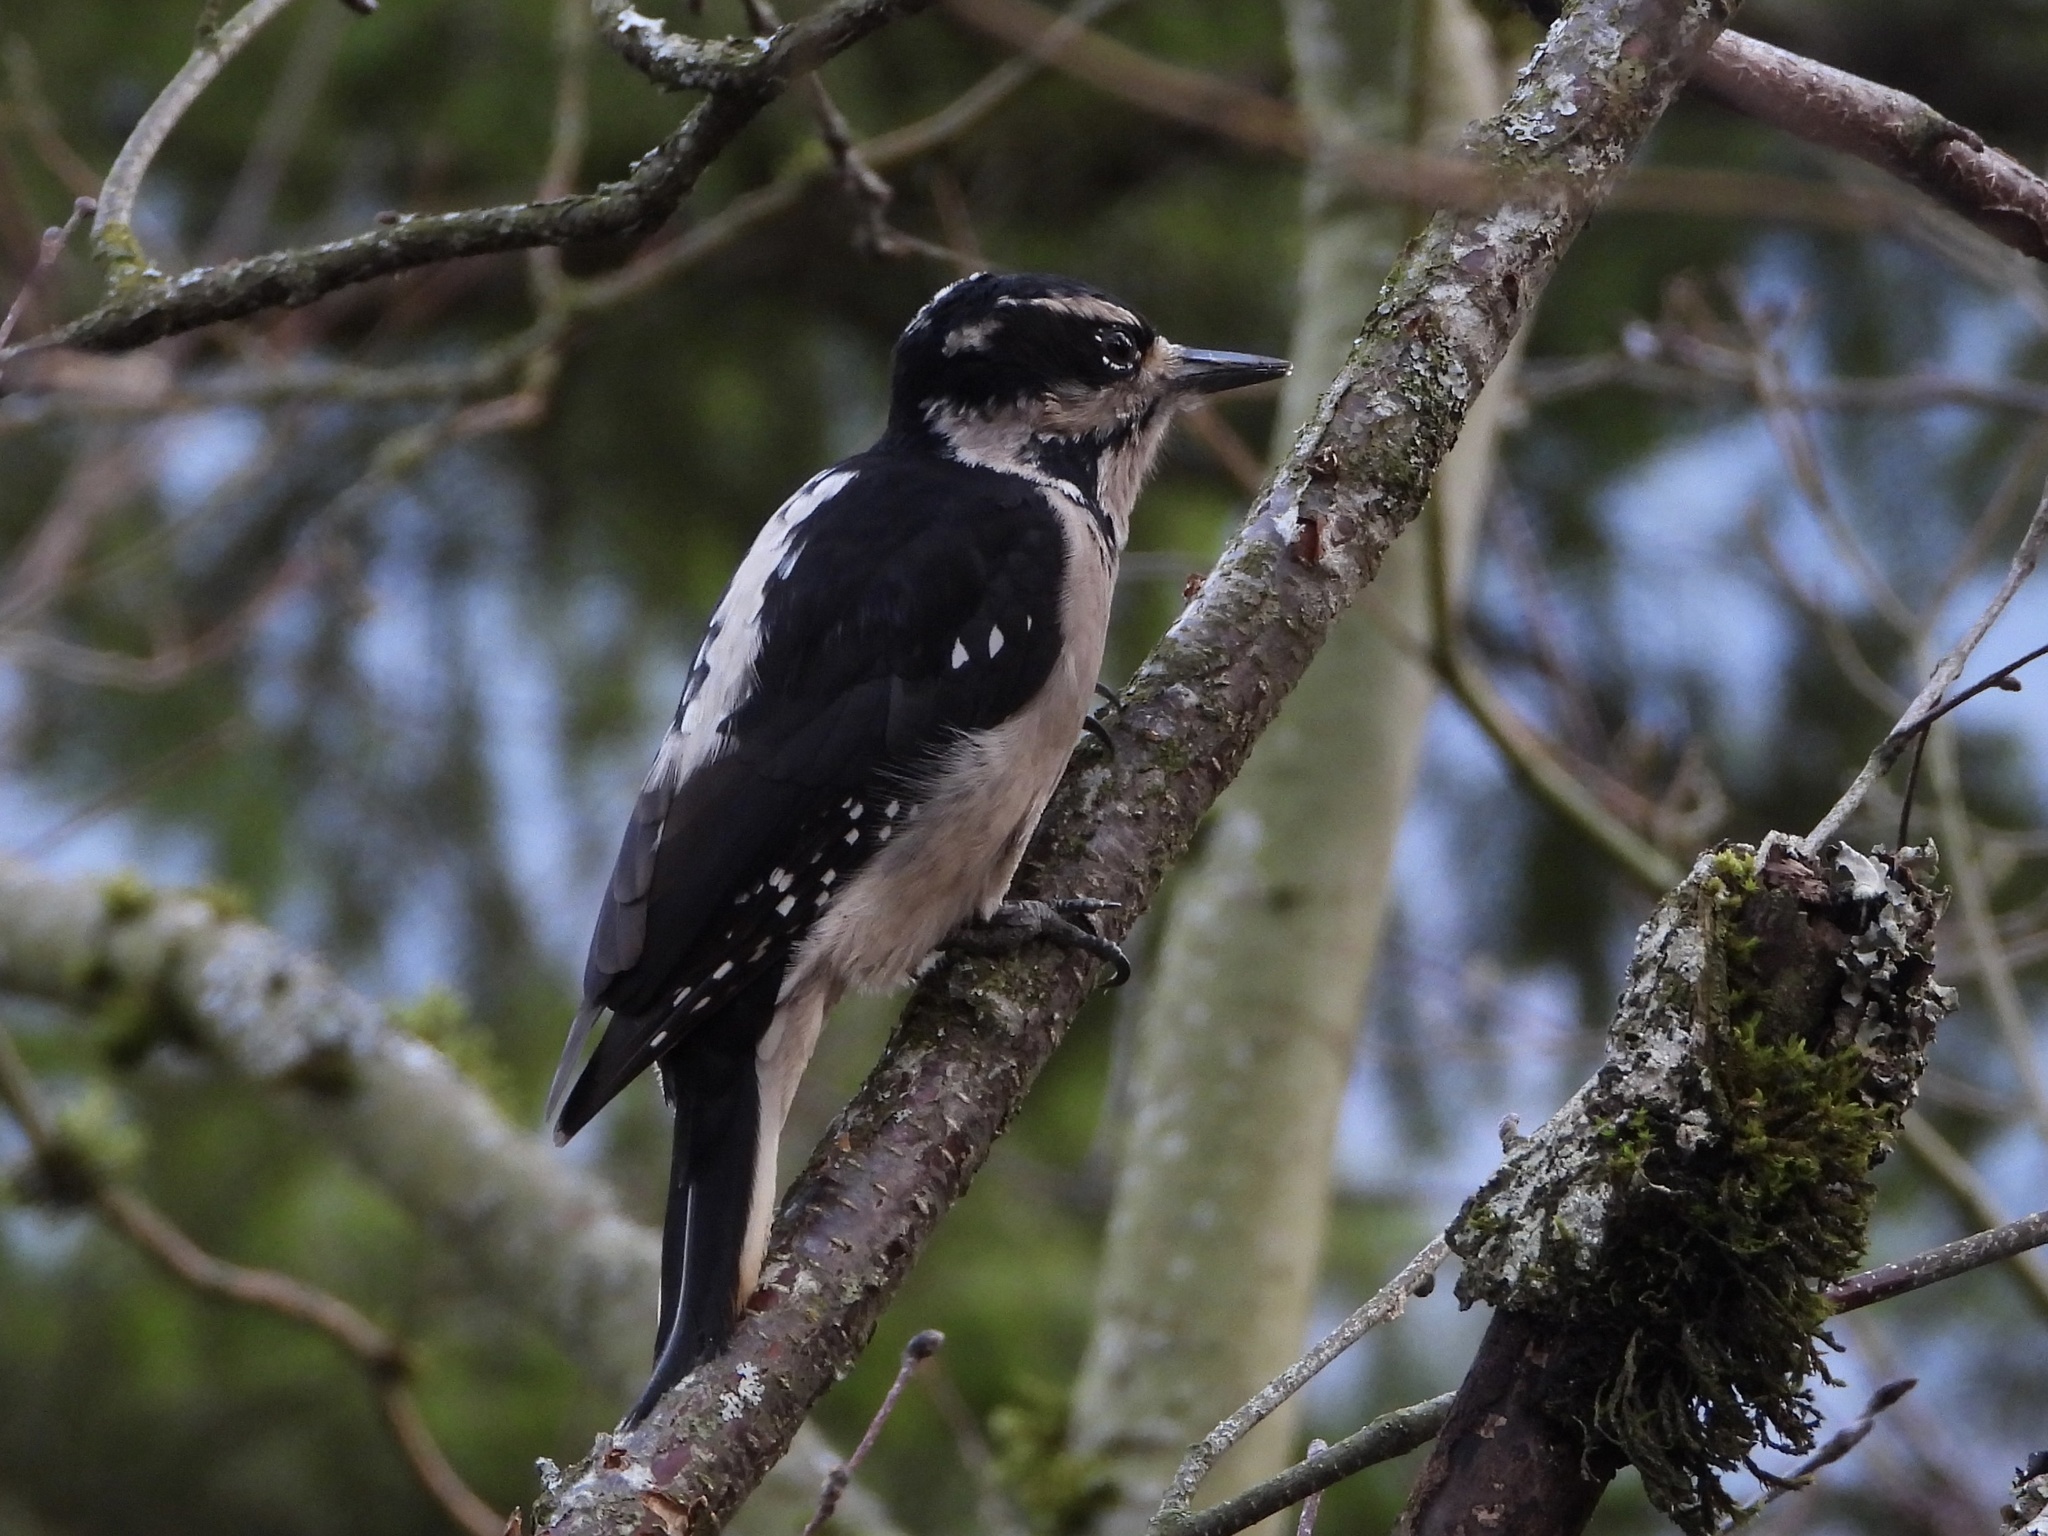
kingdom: Animalia
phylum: Chordata
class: Aves
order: Piciformes
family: Picidae
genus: Leuconotopicus
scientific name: Leuconotopicus villosus
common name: Hairy woodpecker
